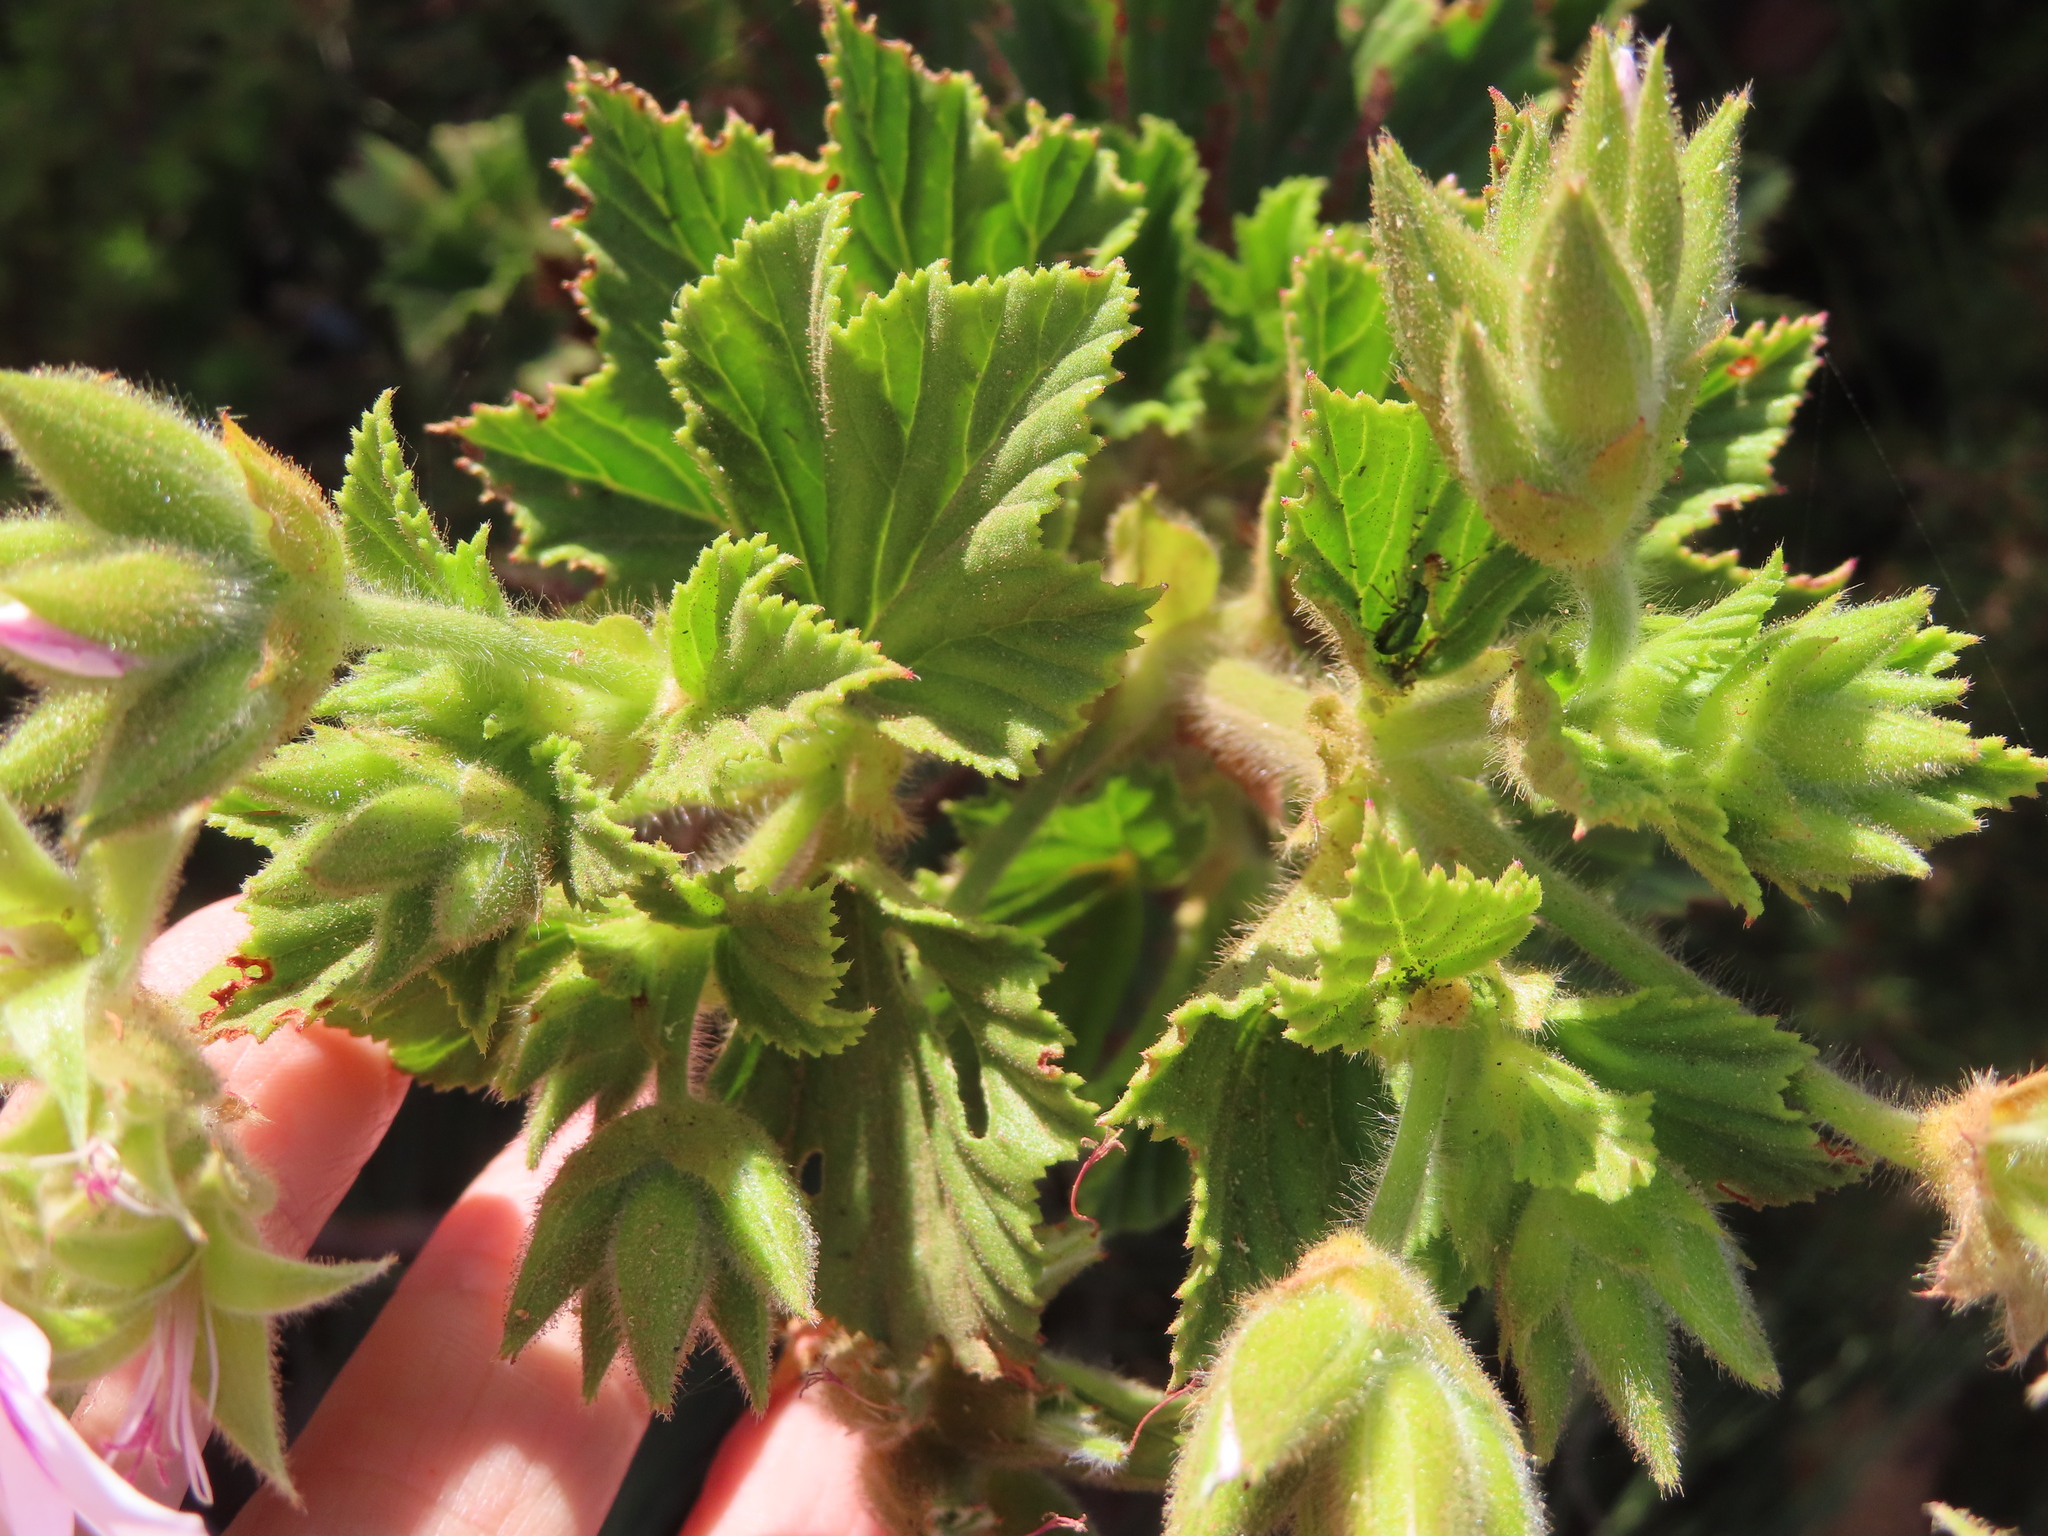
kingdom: Plantae
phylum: Tracheophyta
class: Magnoliopsida
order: Geraniales
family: Geraniaceae
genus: Pelargonium
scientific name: Pelargonium cucullatum
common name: Tree pelargonium
